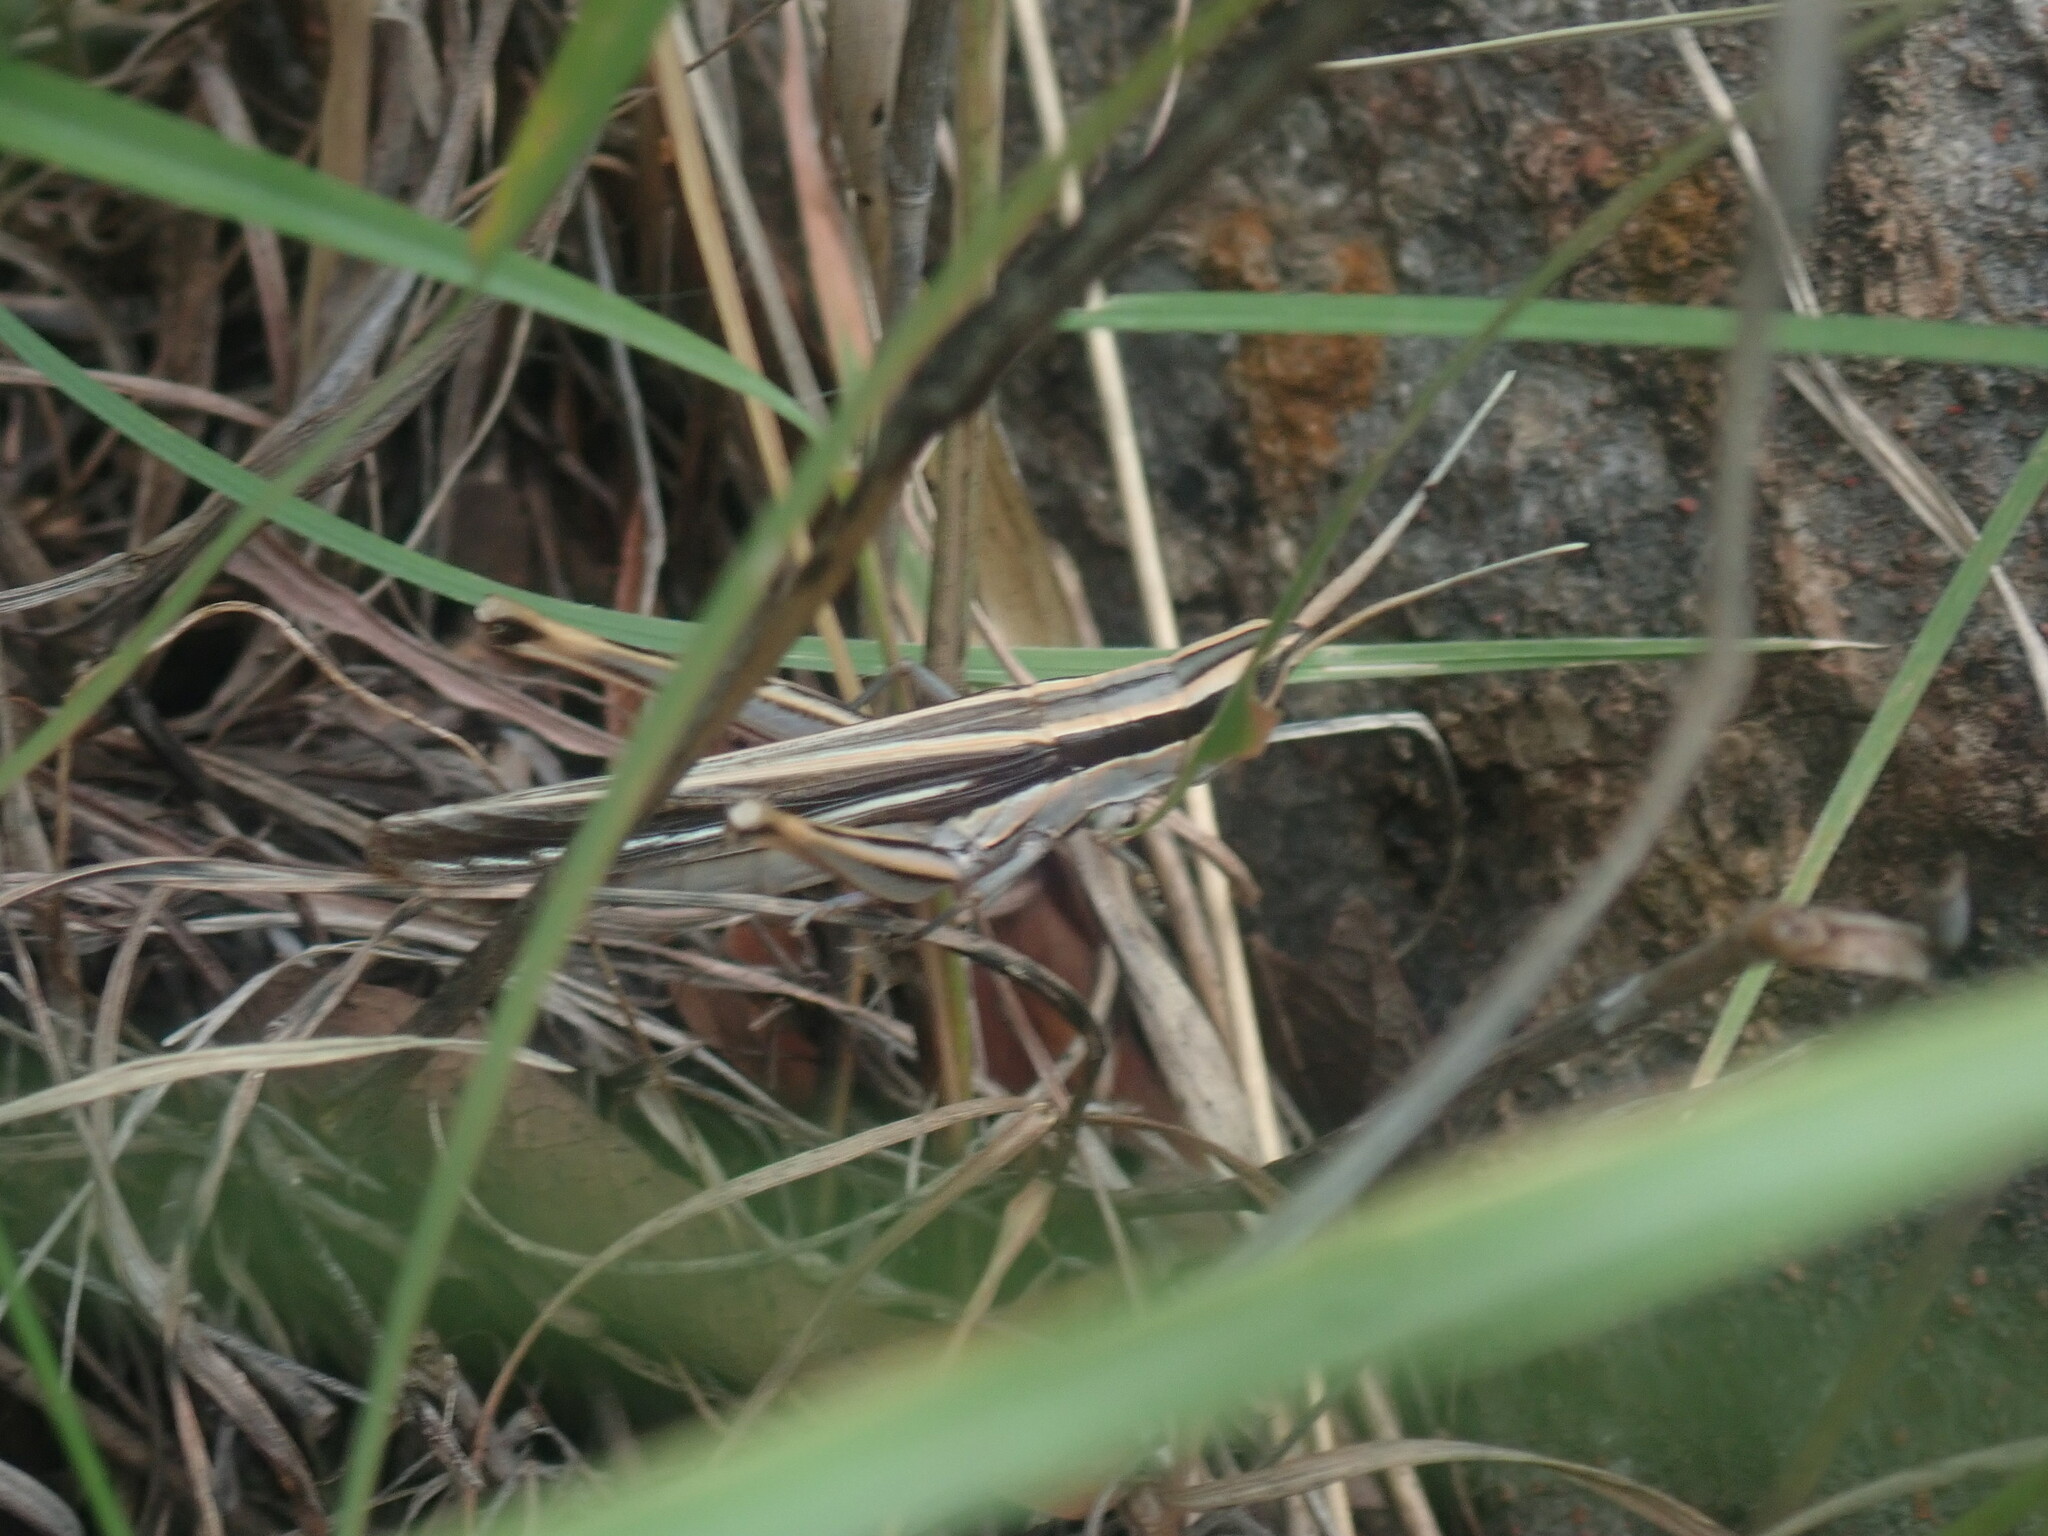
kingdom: Animalia
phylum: Arthropoda
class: Insecta
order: Orthoptera
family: Acrididae
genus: Mermiria
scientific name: Mermiria texana
